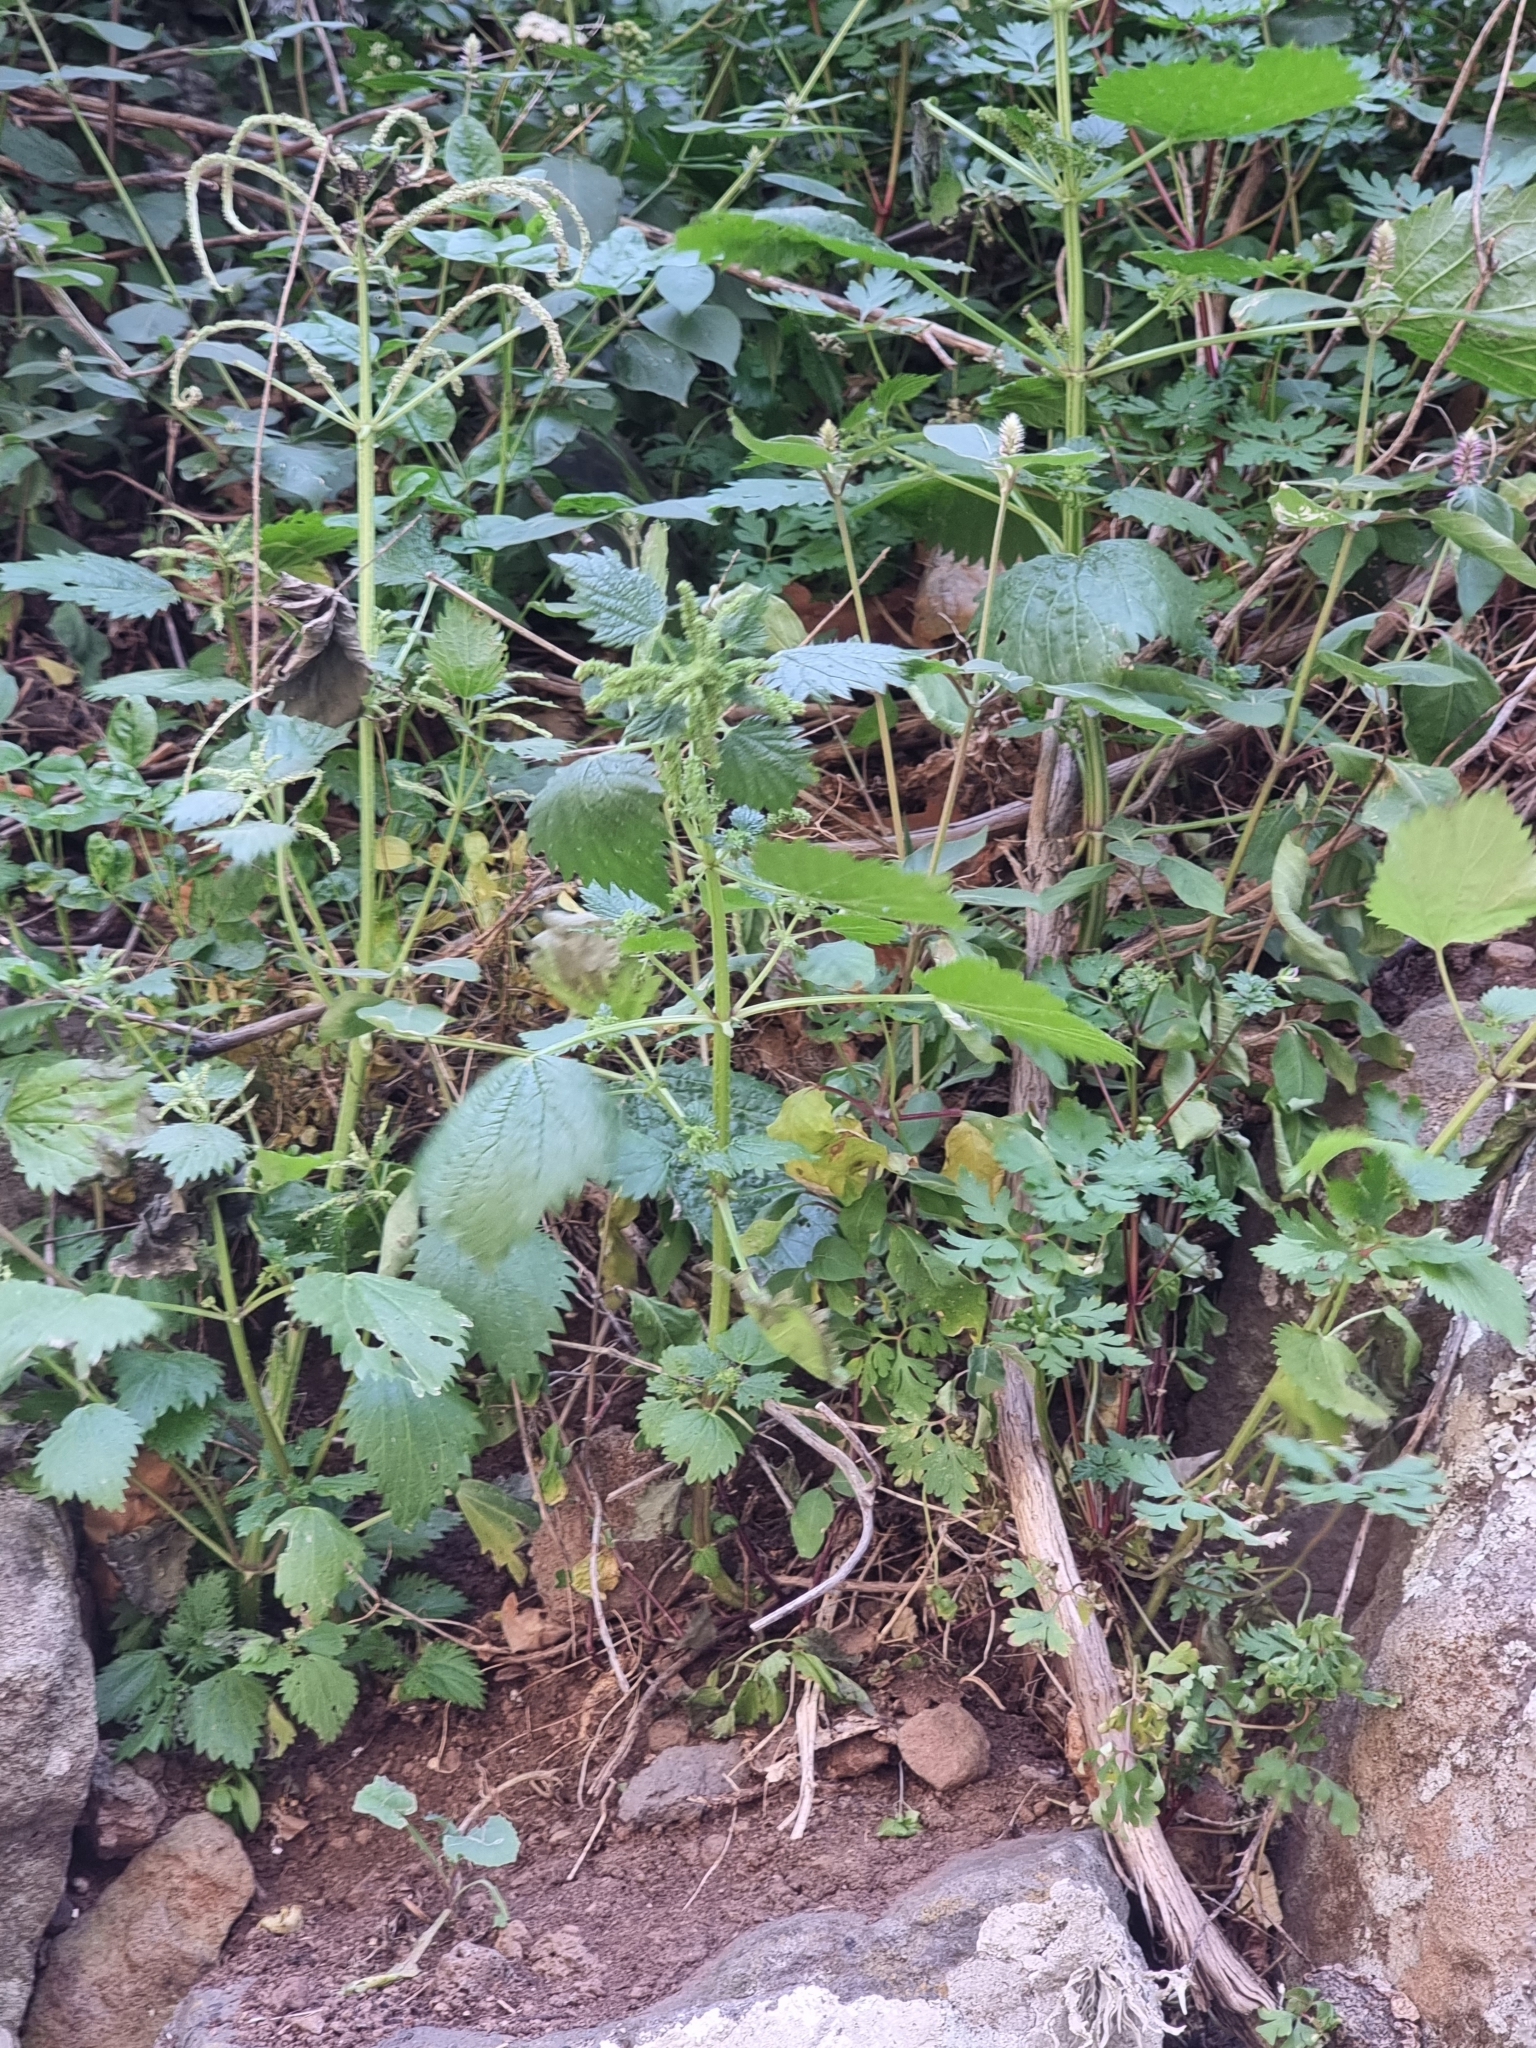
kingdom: Plantae
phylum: Tracheophyta
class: Magnoliopsida
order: Rosales
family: Urticaceae
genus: Urtica
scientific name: Urtica membranacea
